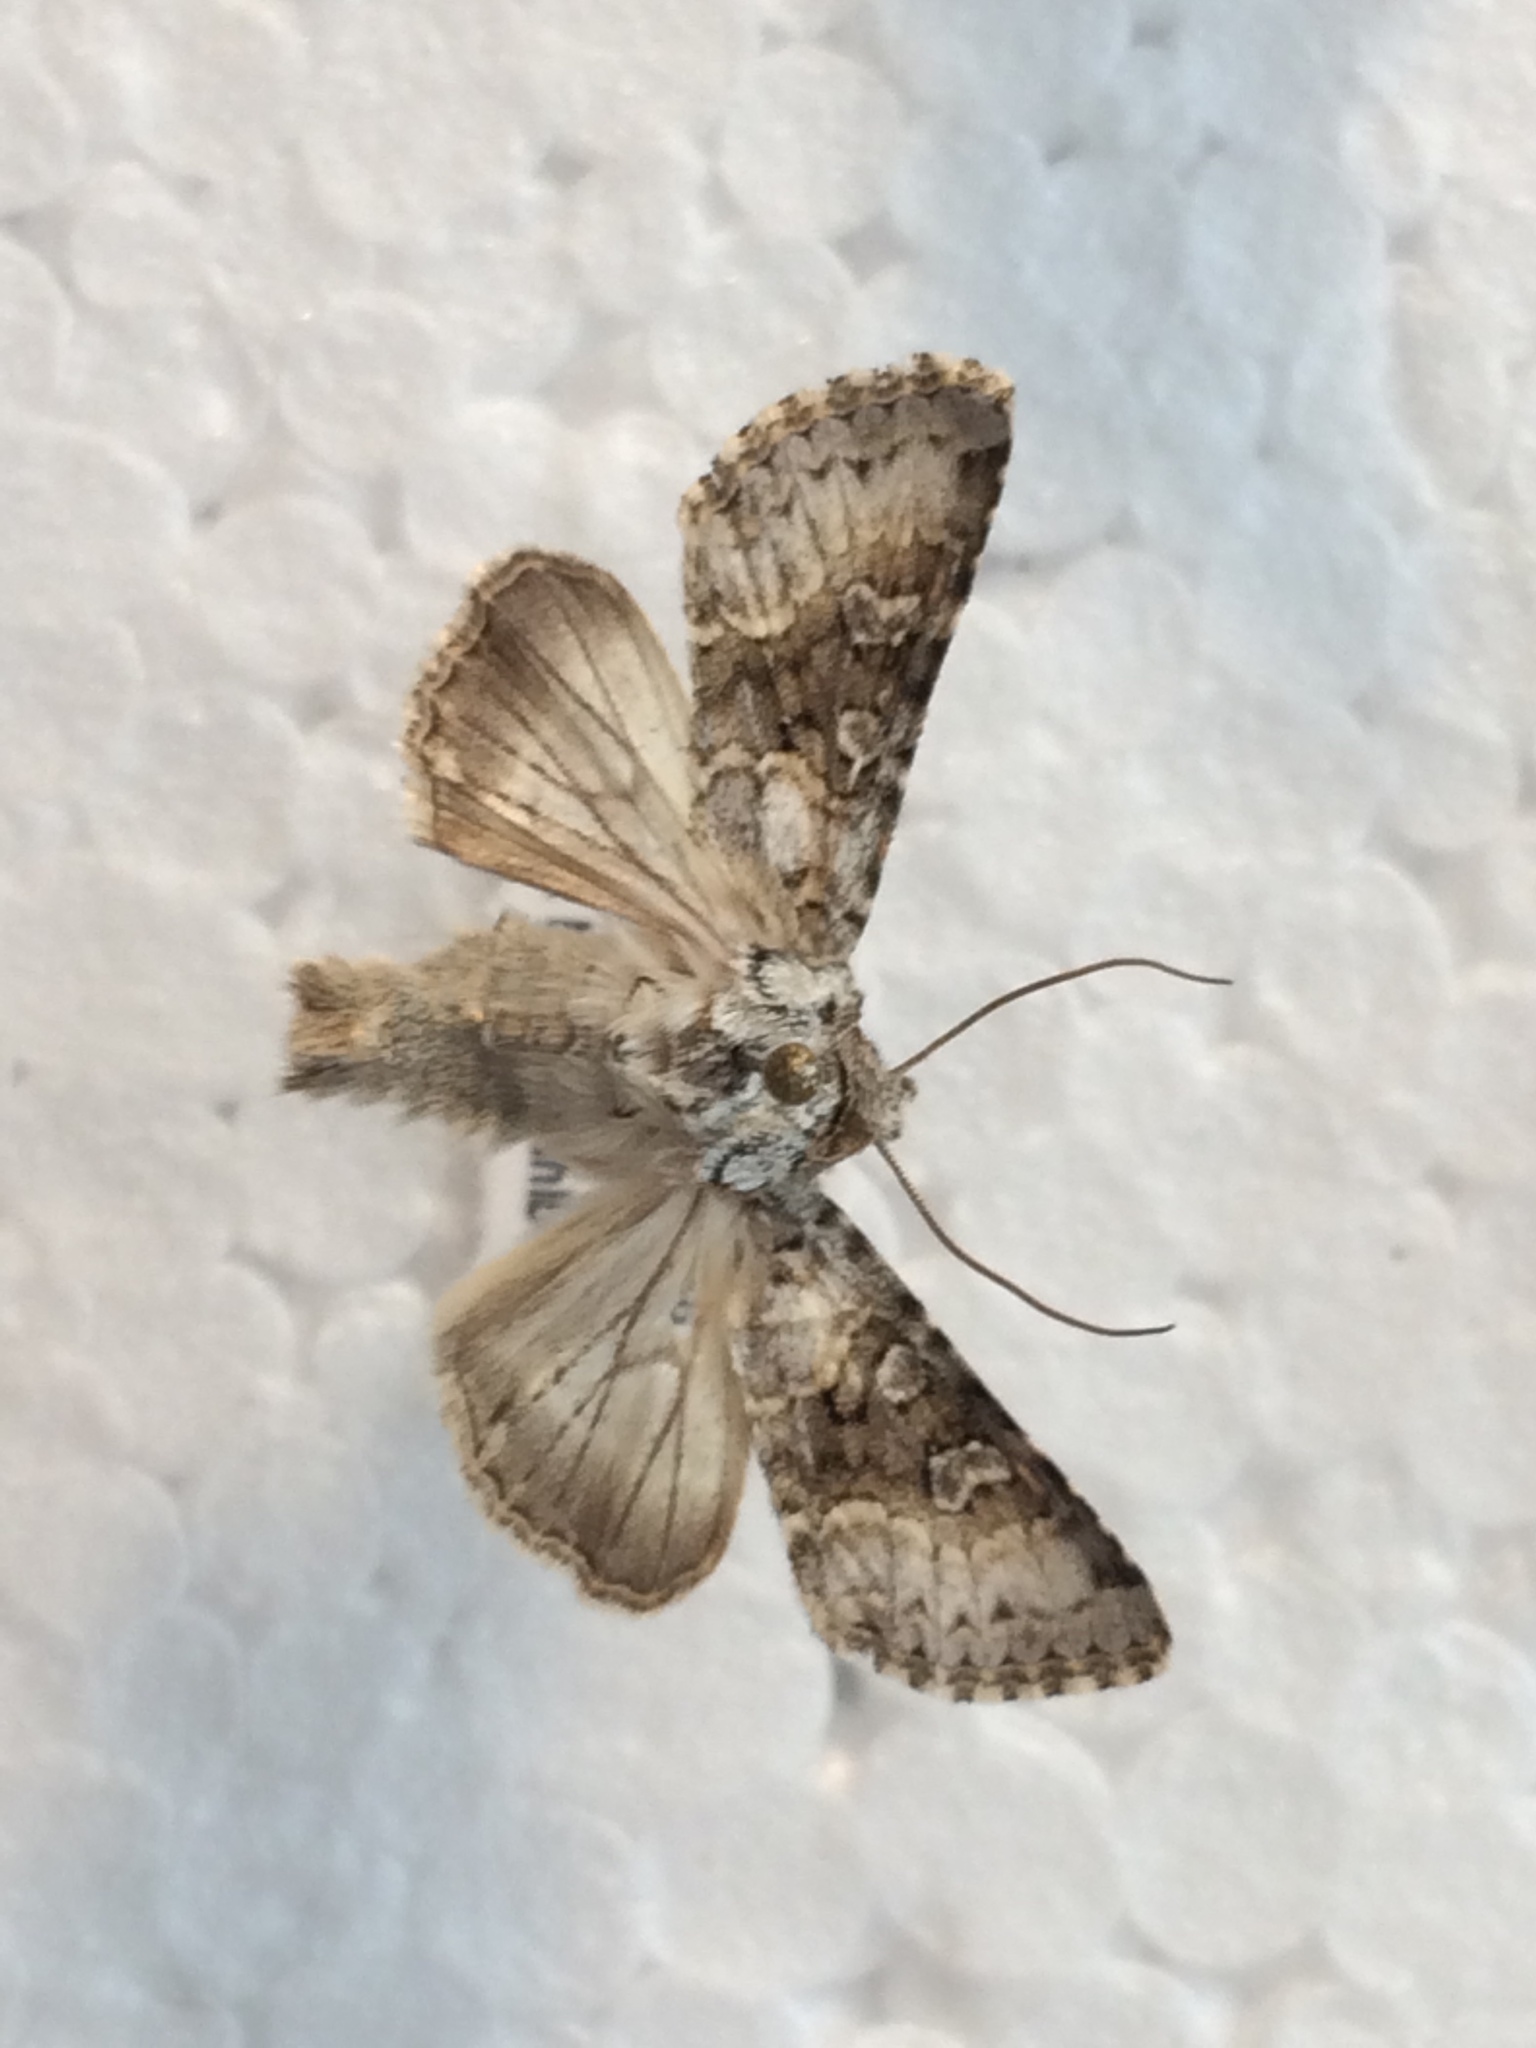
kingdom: Animalia
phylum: Arthropoda
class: Insecta
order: Lepidoptera
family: Noctuidae
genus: Hecatera
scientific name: Hecatera bicolorata
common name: Broad-barred white
